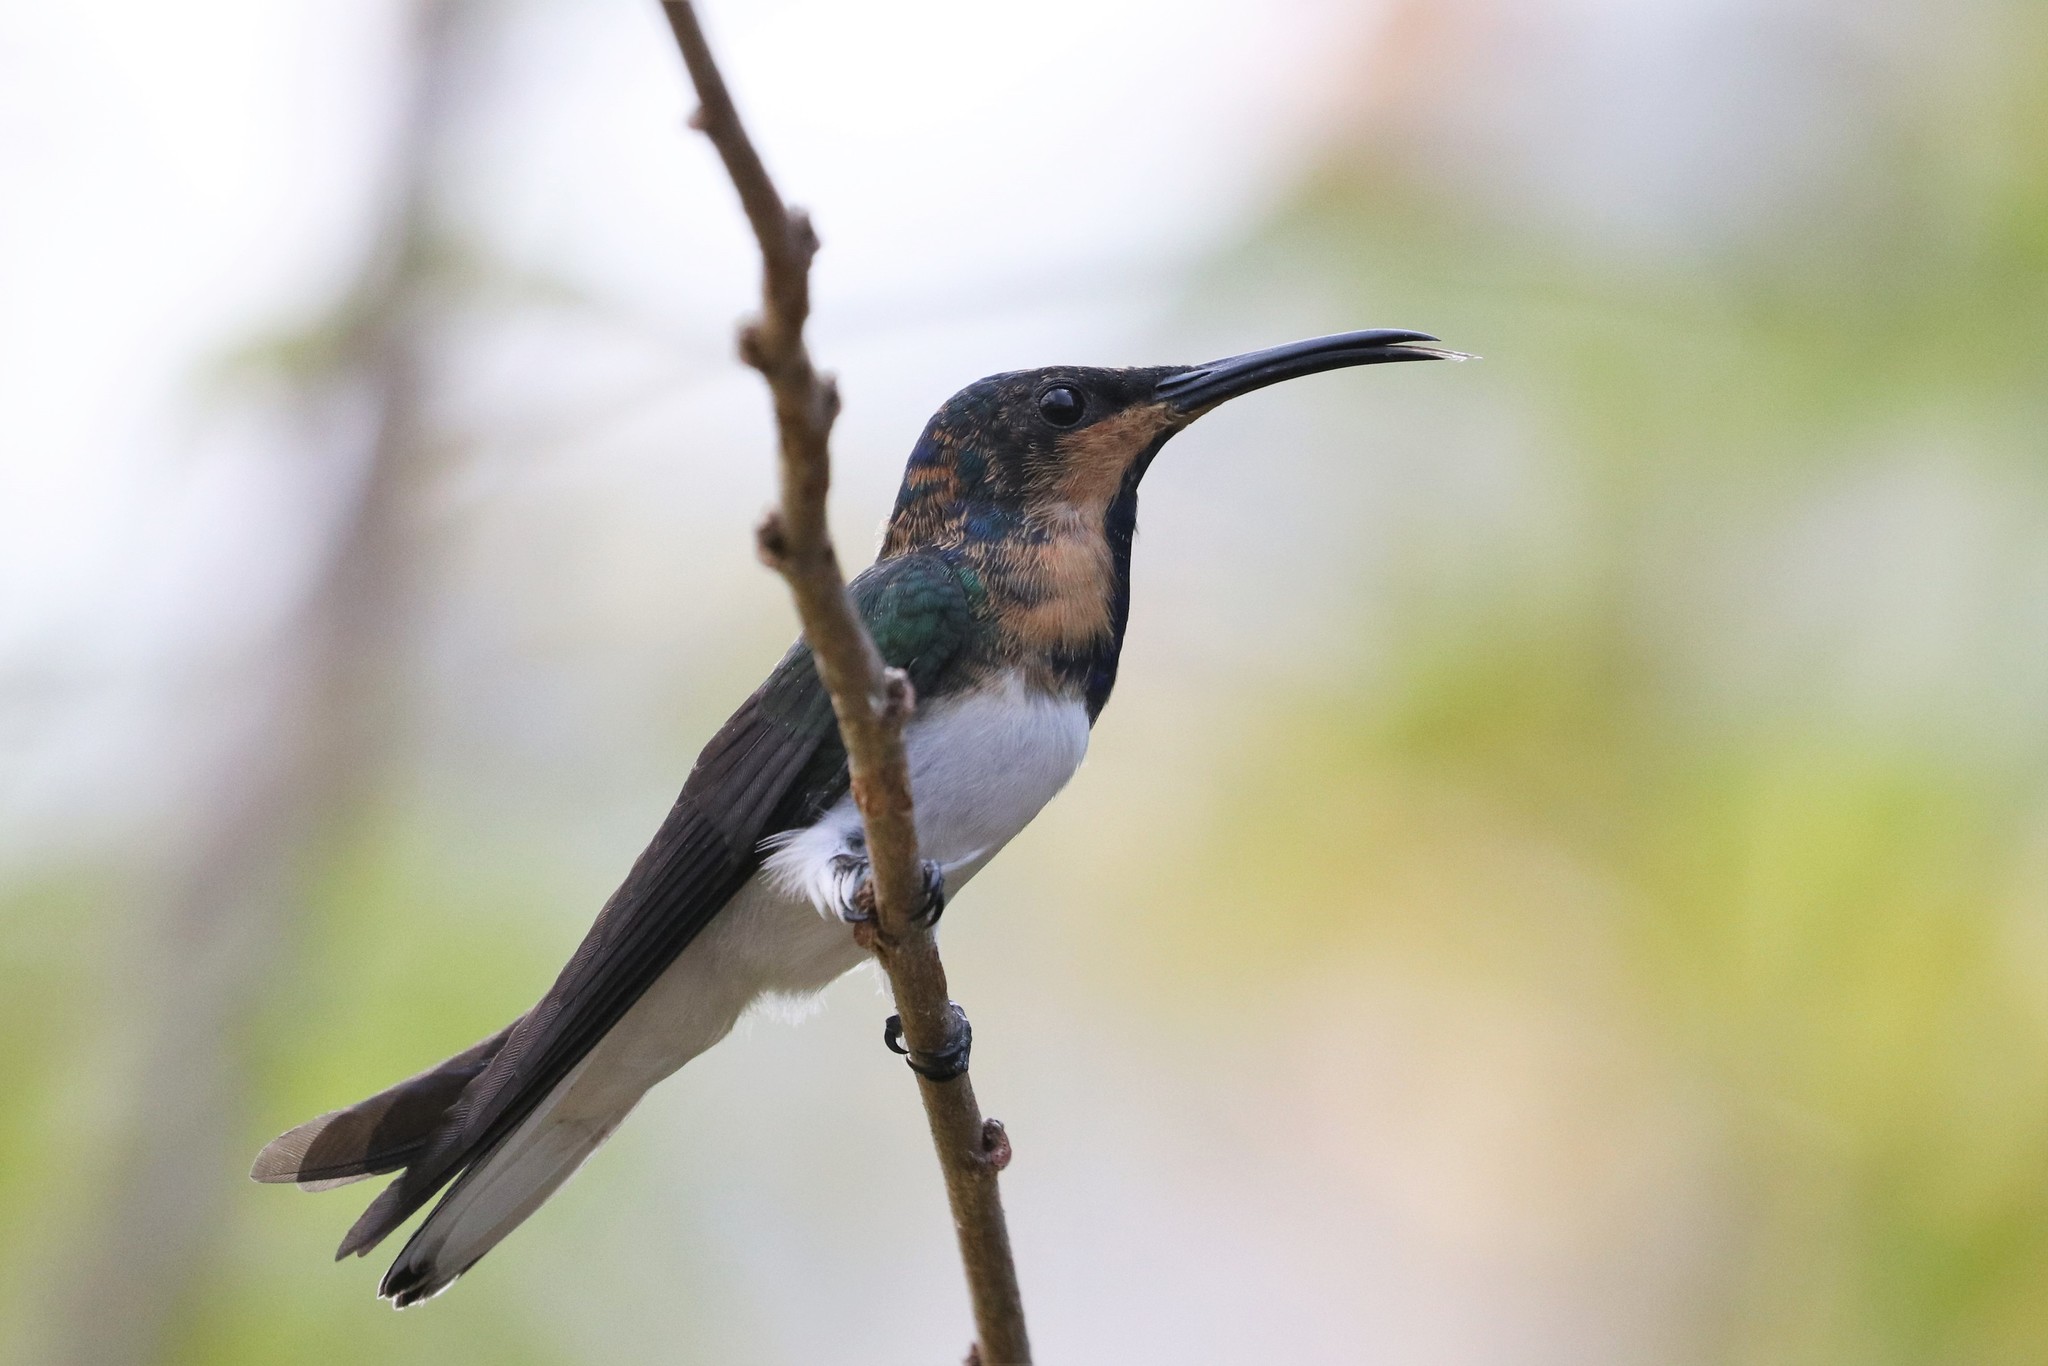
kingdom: Animalia
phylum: Chordata
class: Aves
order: Apodiformes
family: Trochilidae
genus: Florisuga
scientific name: Florisuga mellivora
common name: White-necked jacobin
